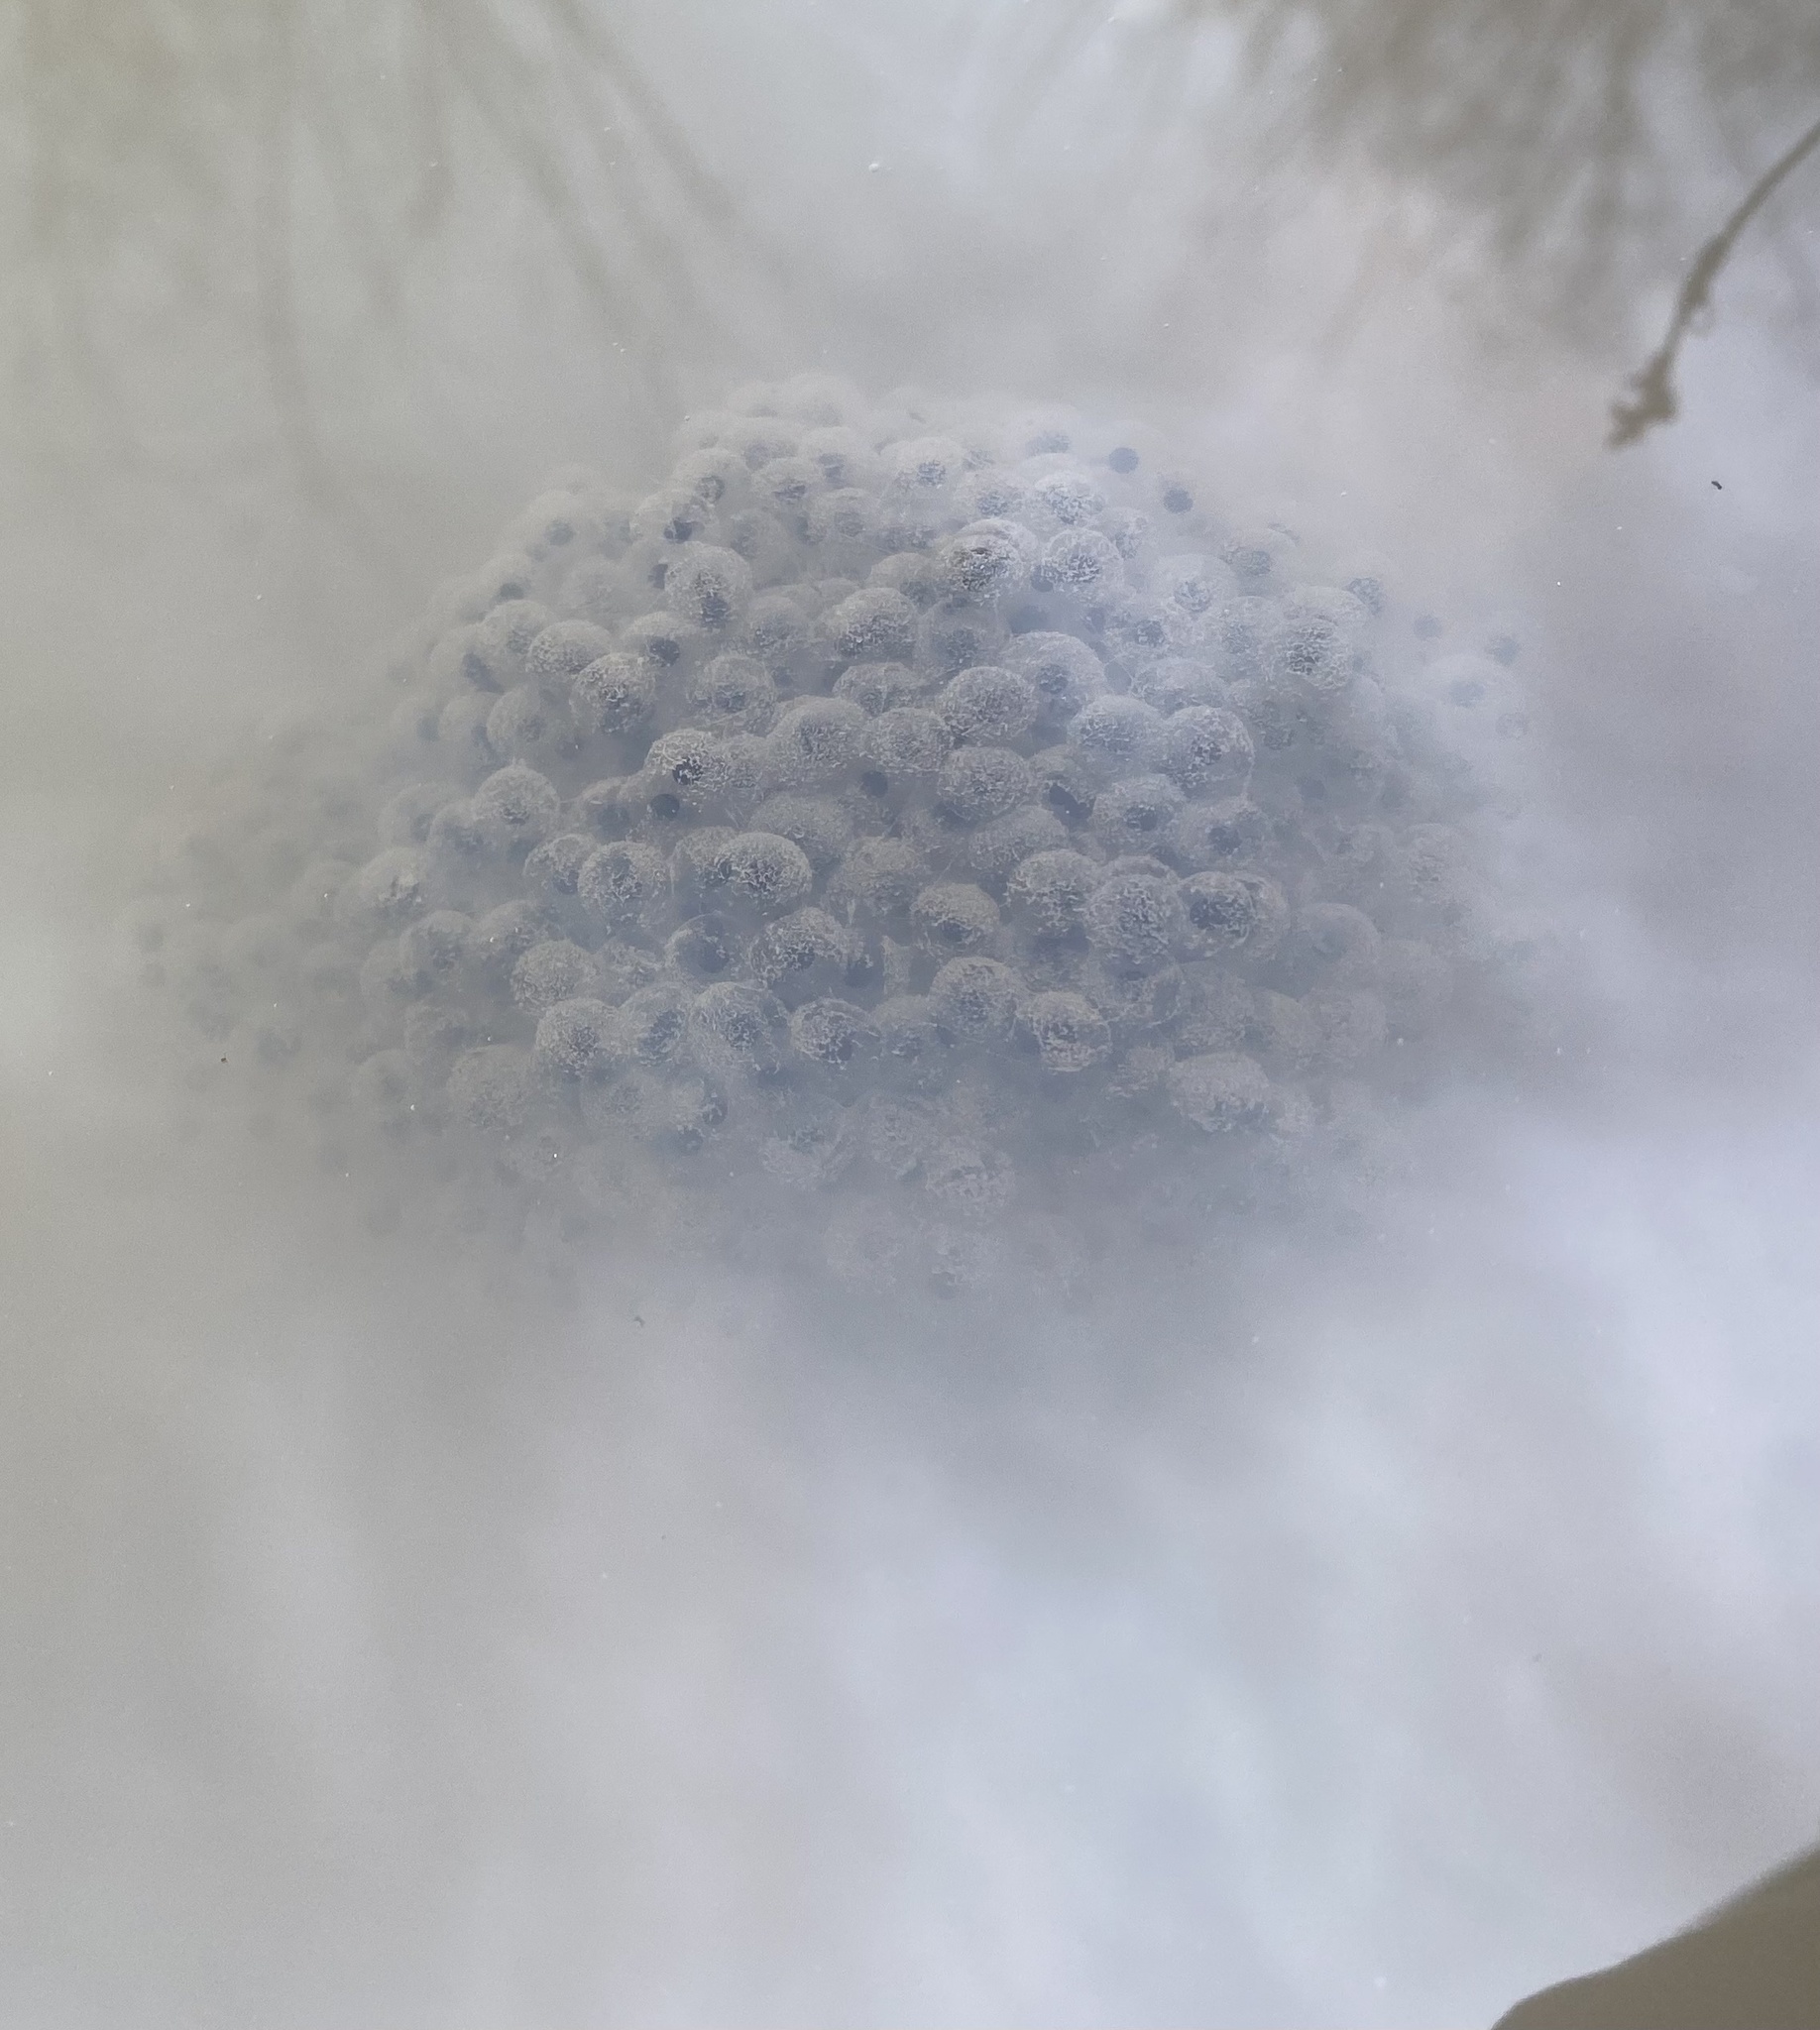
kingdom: Animalia
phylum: Chordata
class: Amphibia
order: Anura
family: Ranidae
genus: Rana
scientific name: Rana macrocnemis
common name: Banded frog
